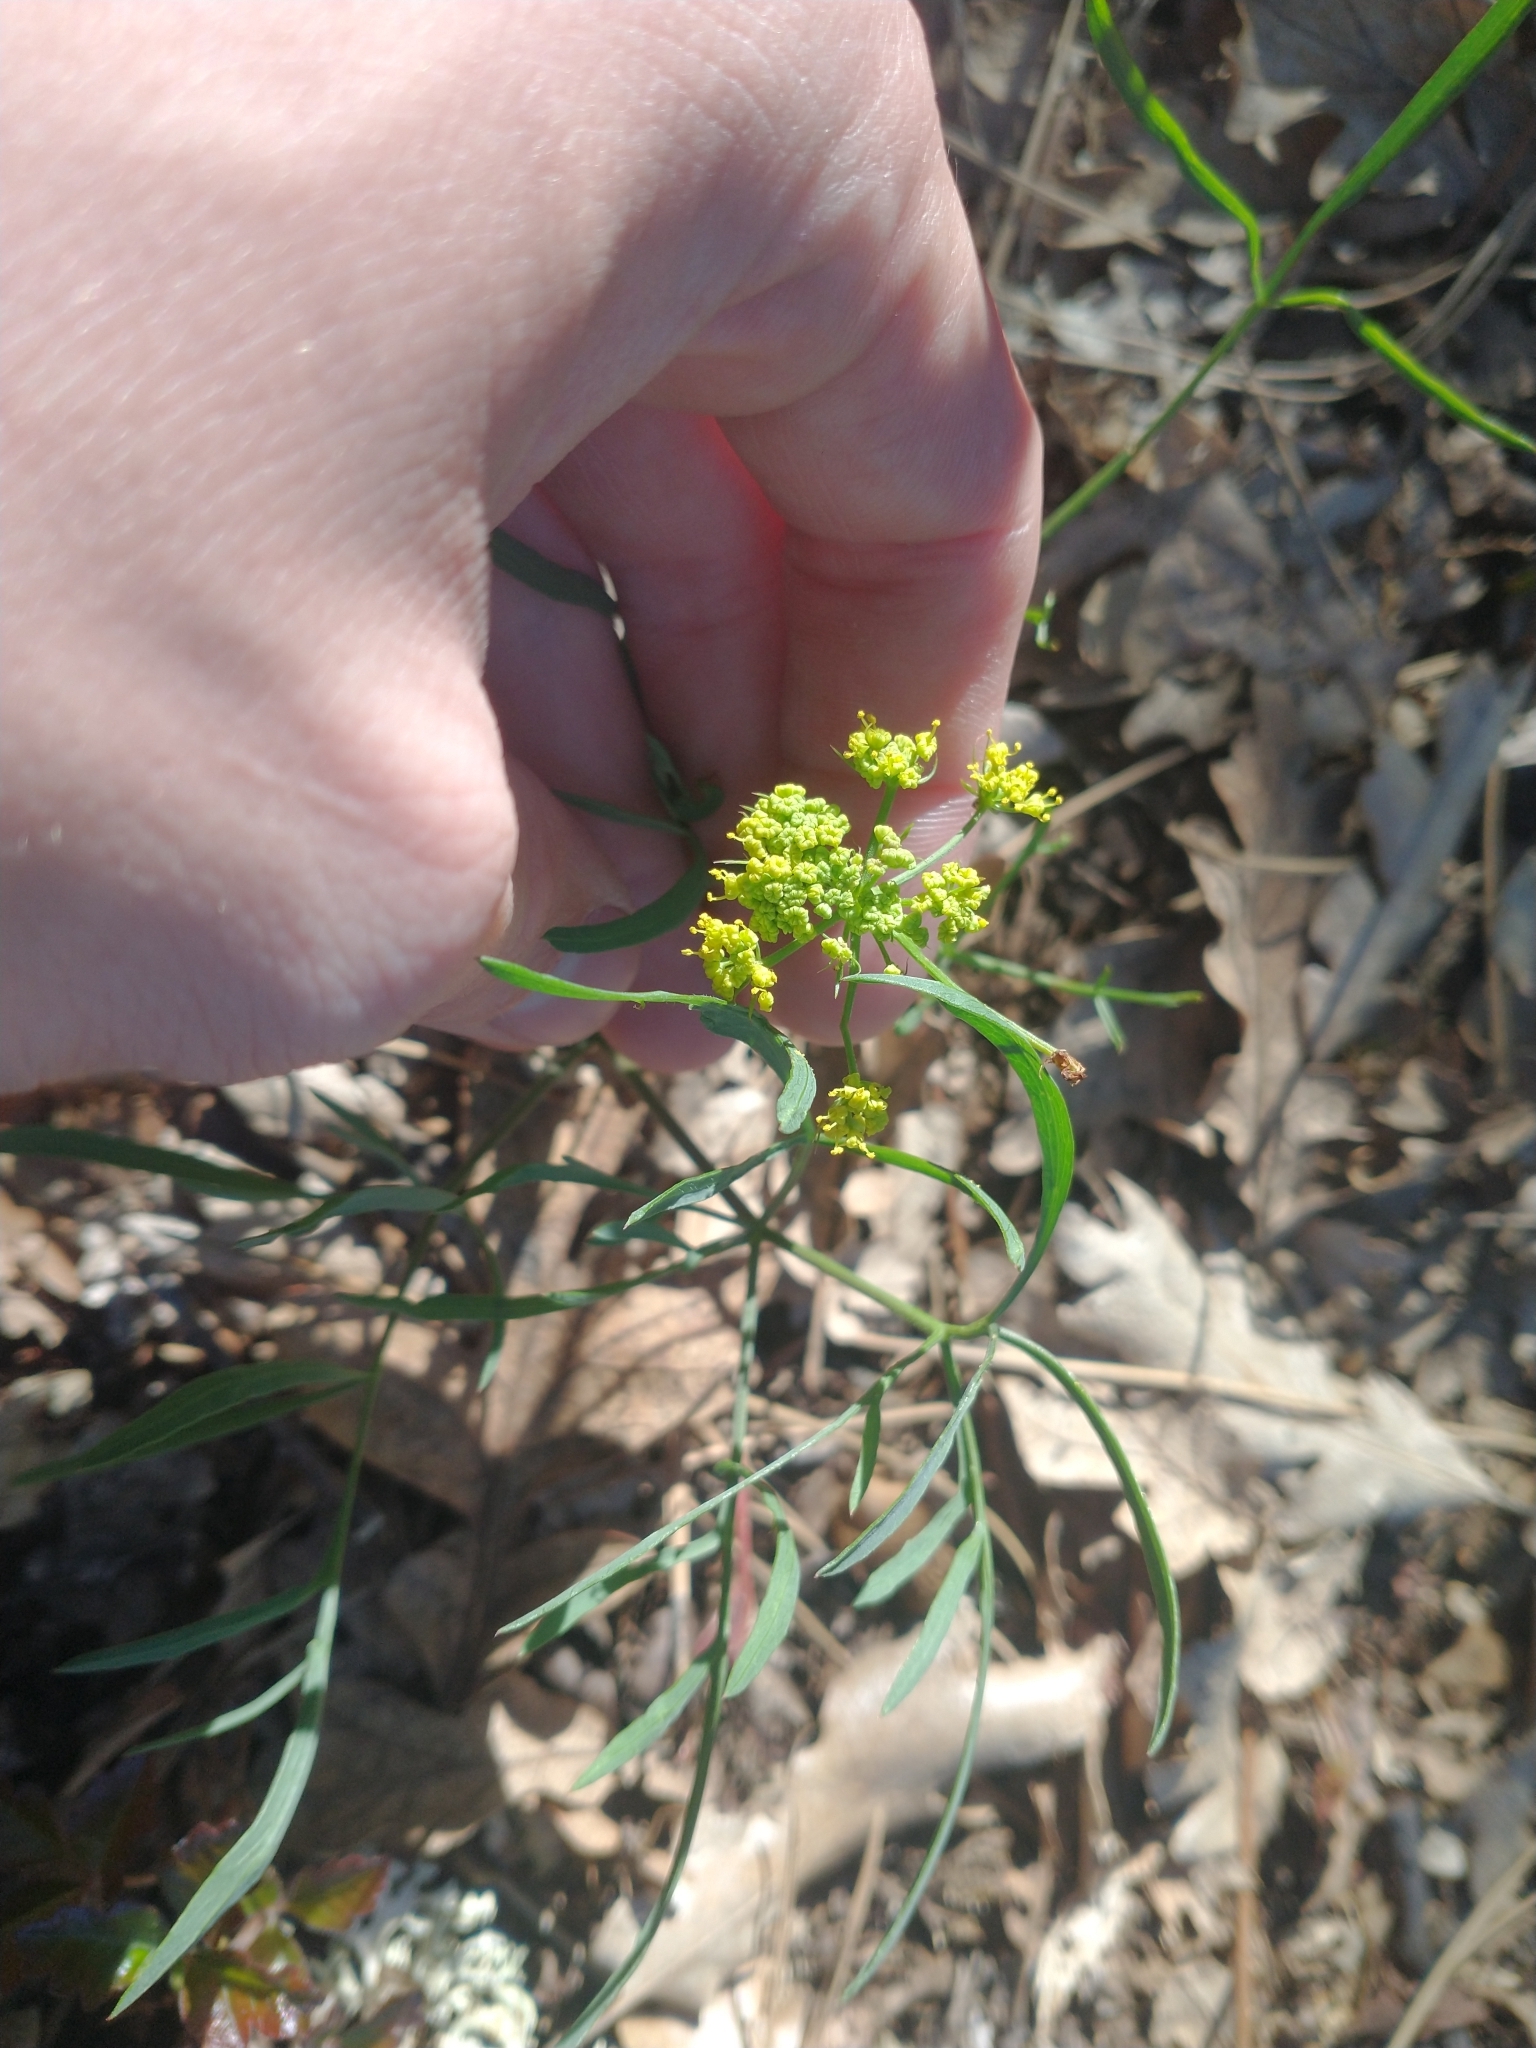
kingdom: Plantae
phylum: Tracheophyta
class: Magnoliopsida
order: Apiales
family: Apiaceae
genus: Lomatium
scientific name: Lomatium triternatum
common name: Ternate lomatium
